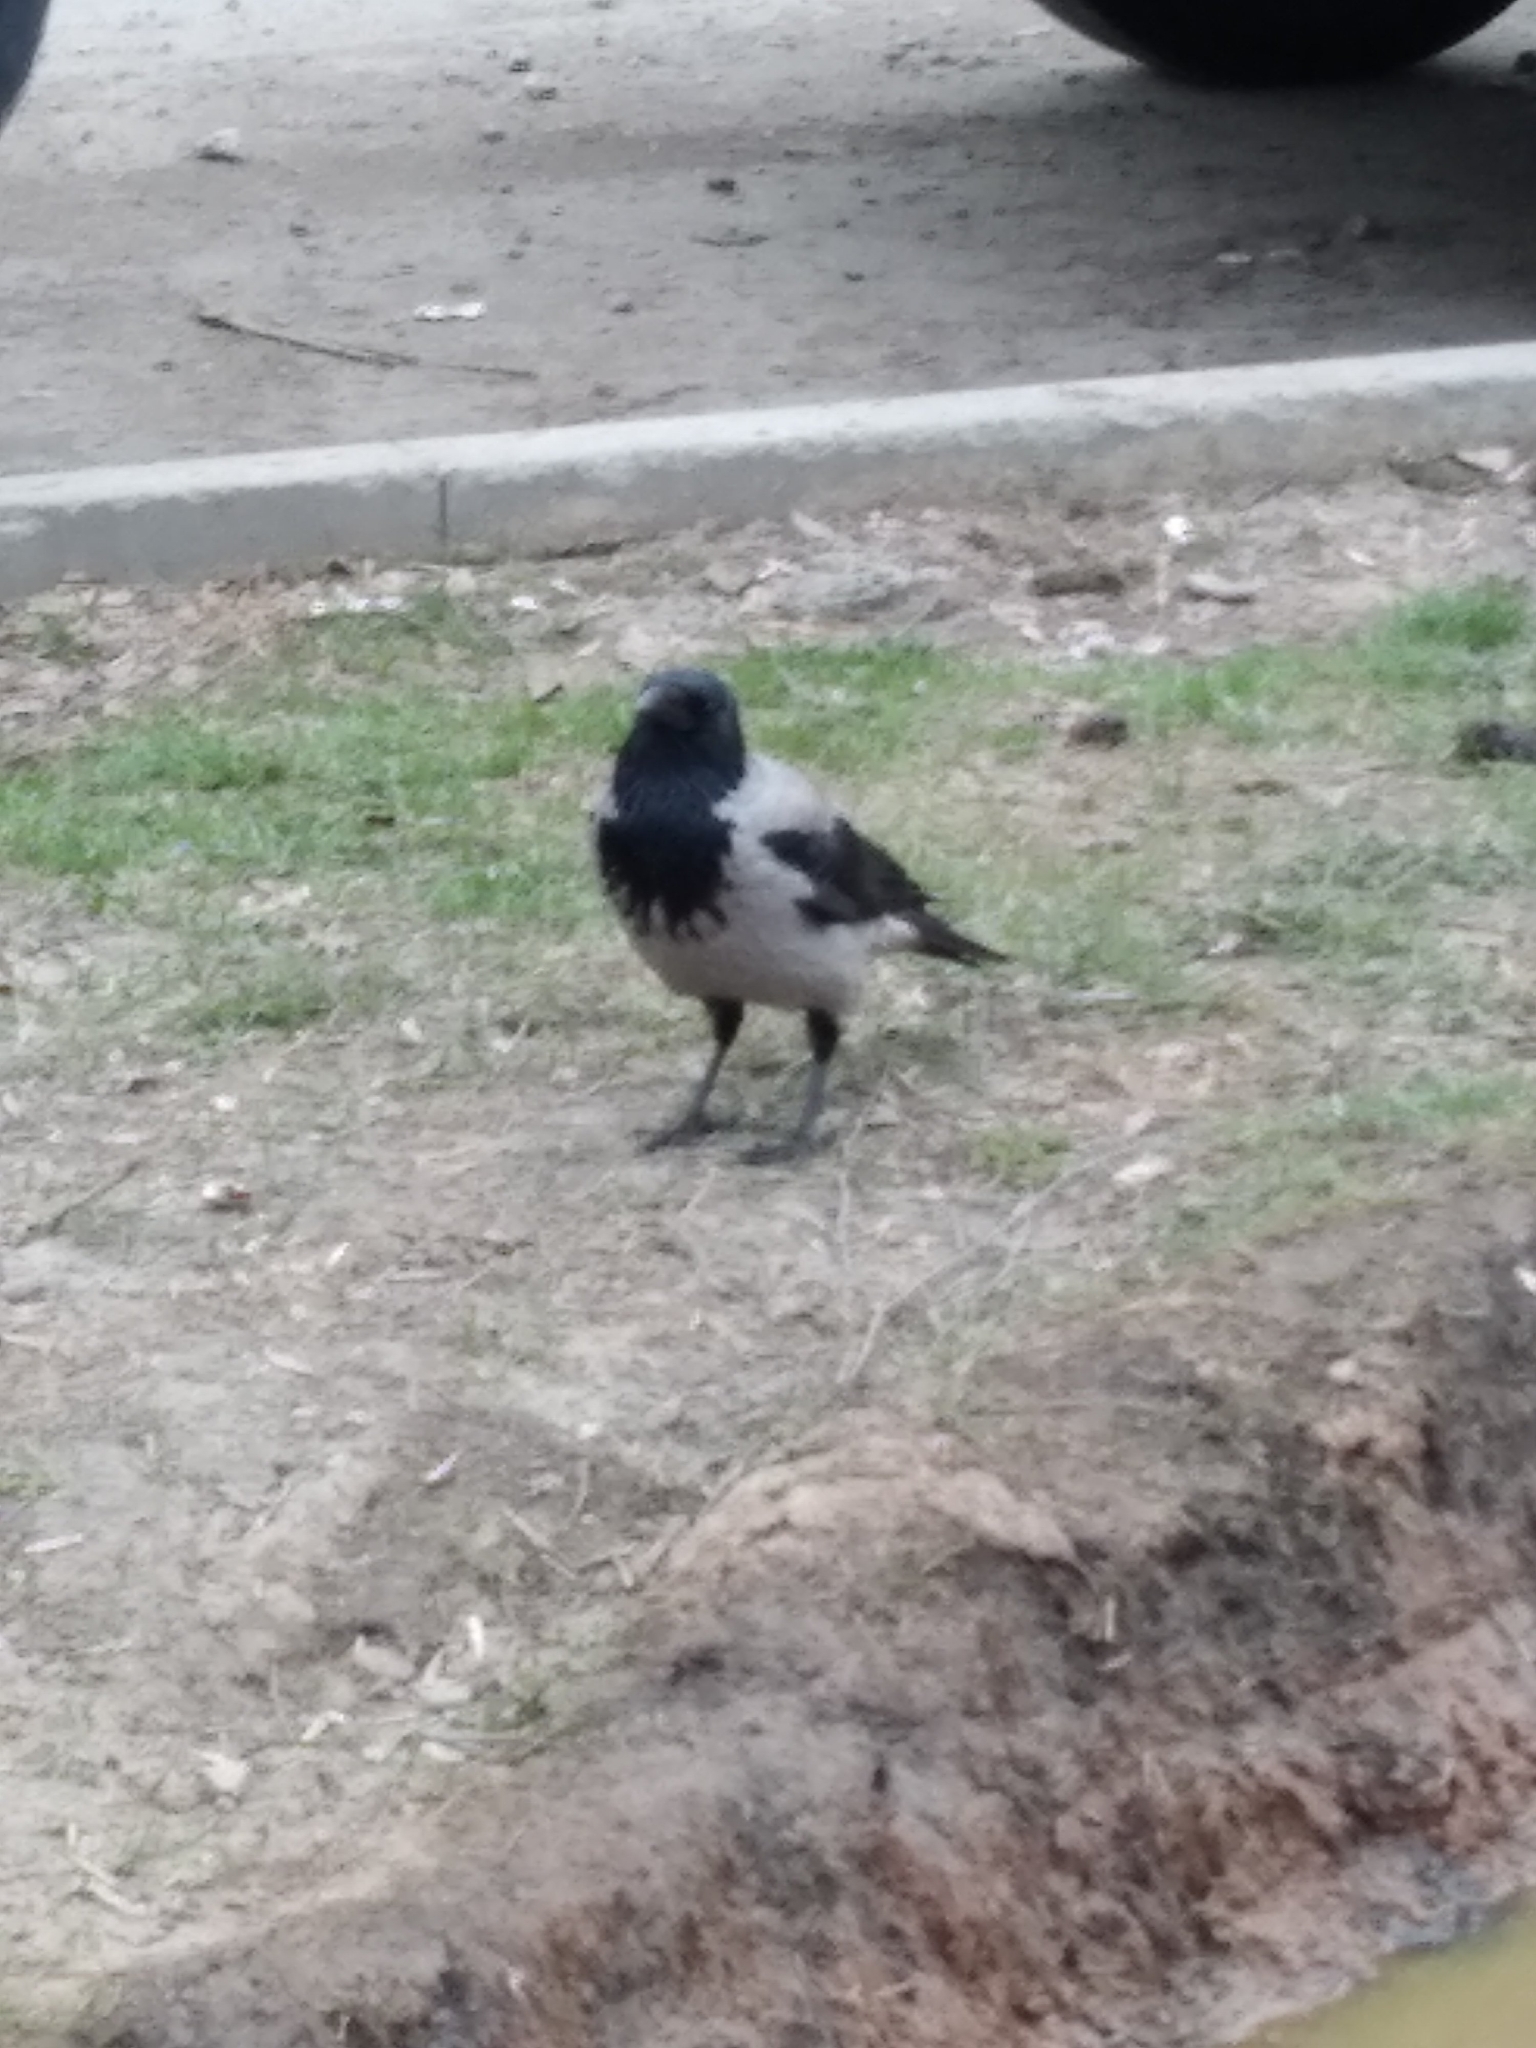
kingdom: Animalia
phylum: Chordata
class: Aves
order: Passeriformes
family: Corvidae
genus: Corvus
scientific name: Corvus cornix
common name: Hooded crow
